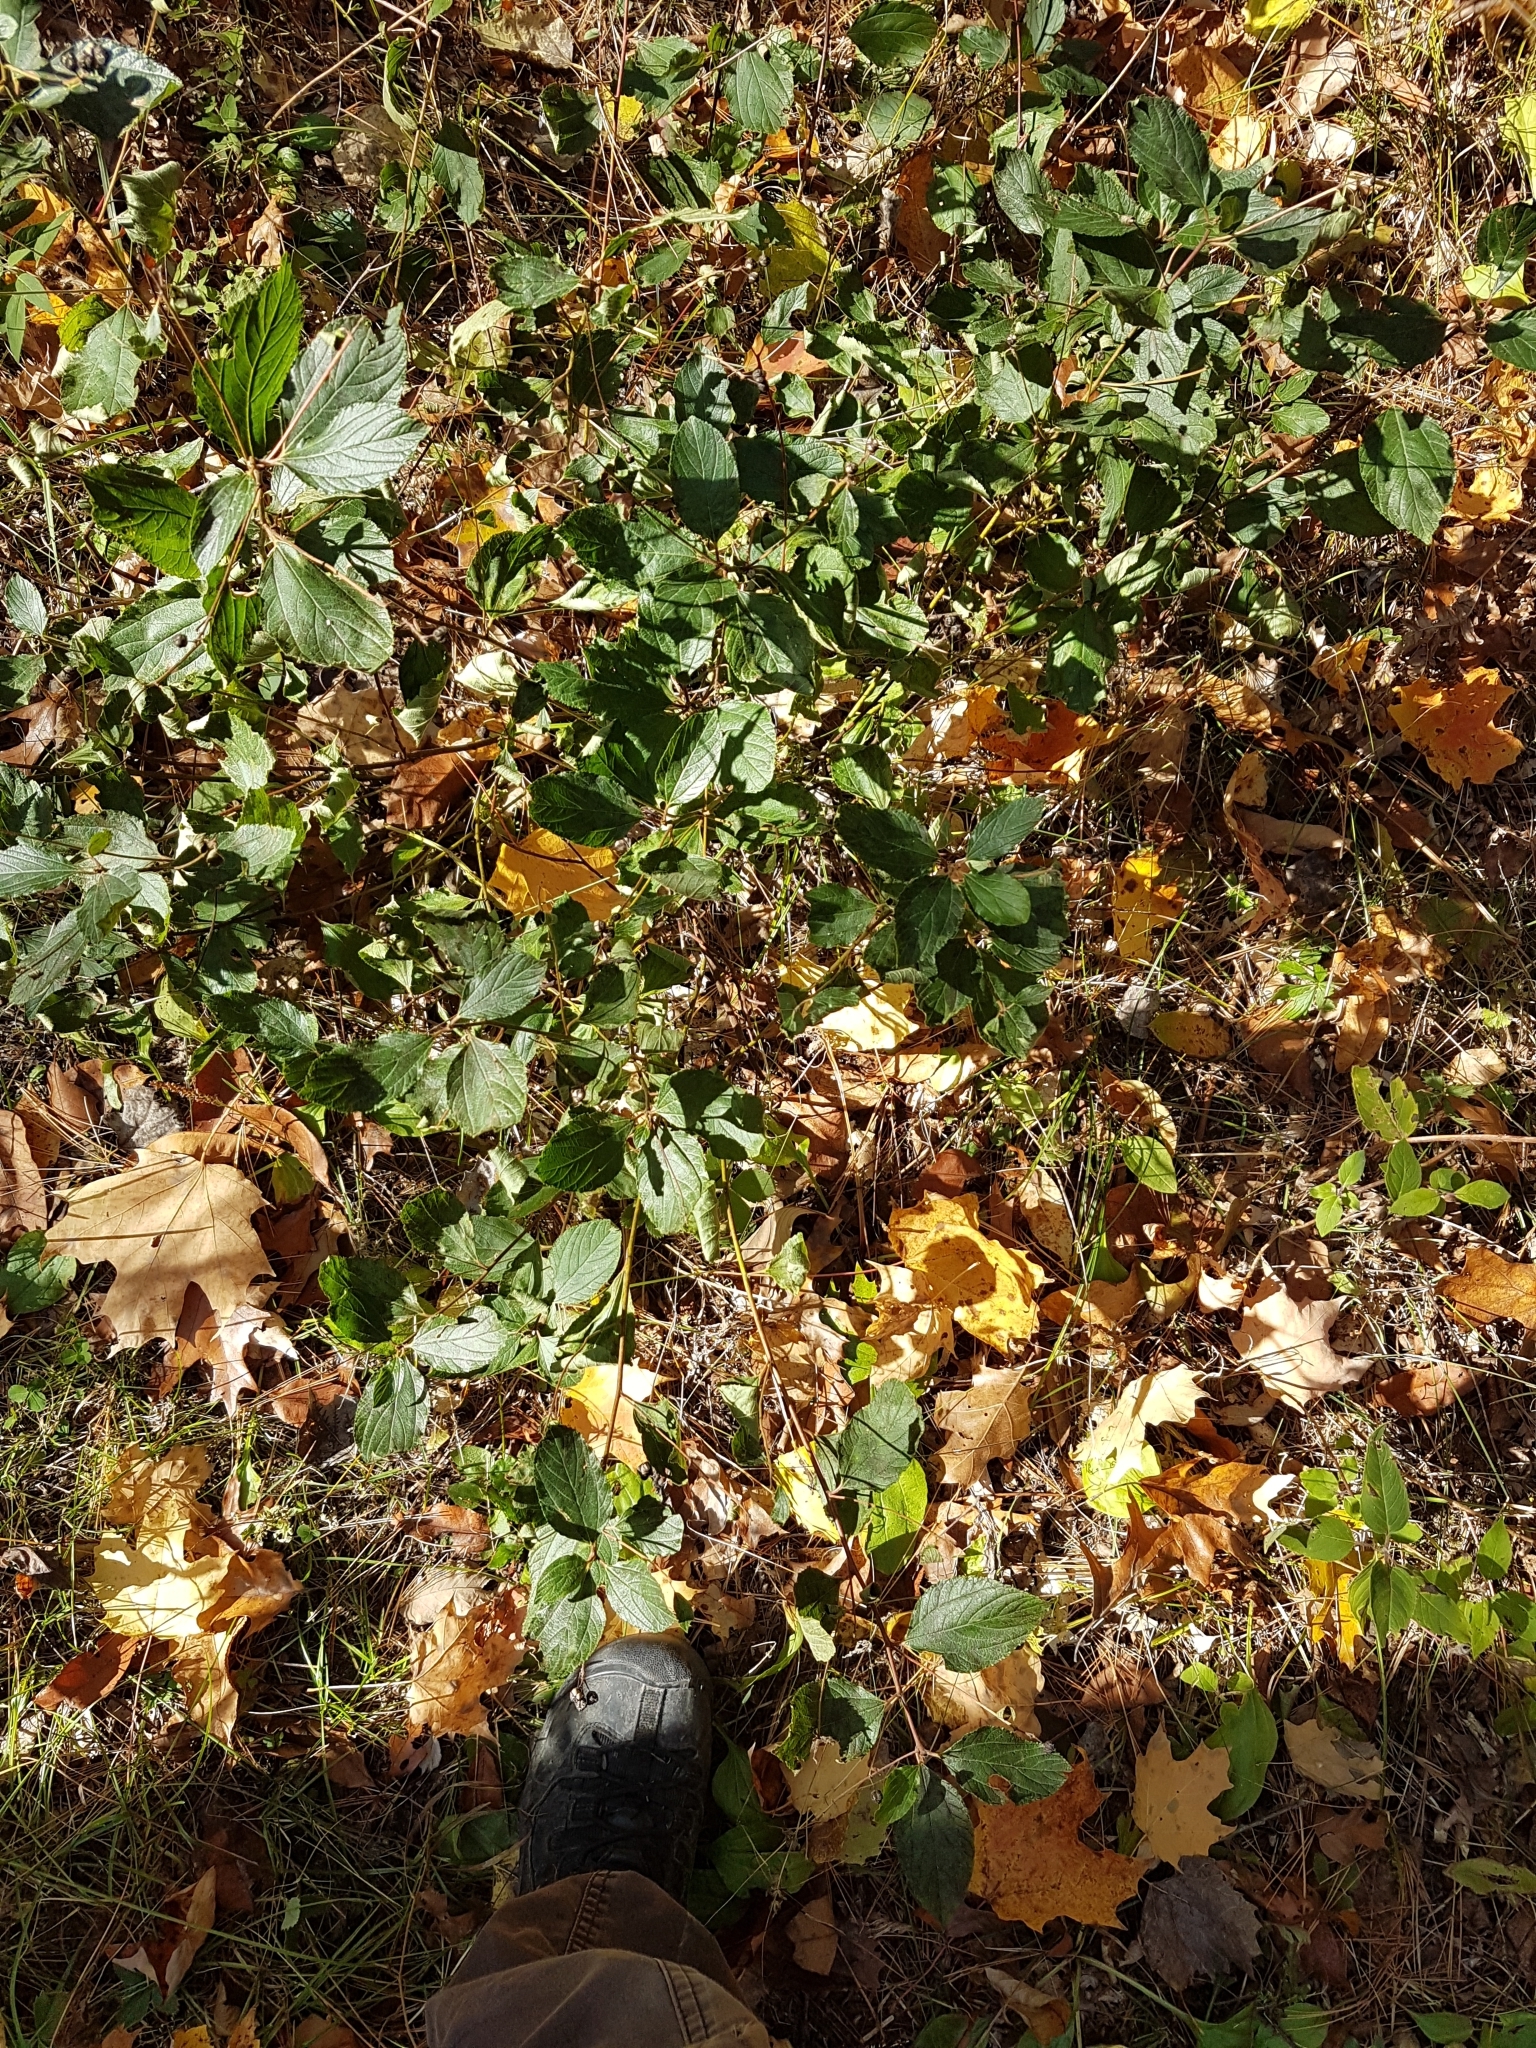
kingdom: Plantae
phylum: Tracheophyta
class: Magnoliopsida
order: Rosales
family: Rhamnaceae
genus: Ceanothus
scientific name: Ceanothus americanus
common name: Redroot
